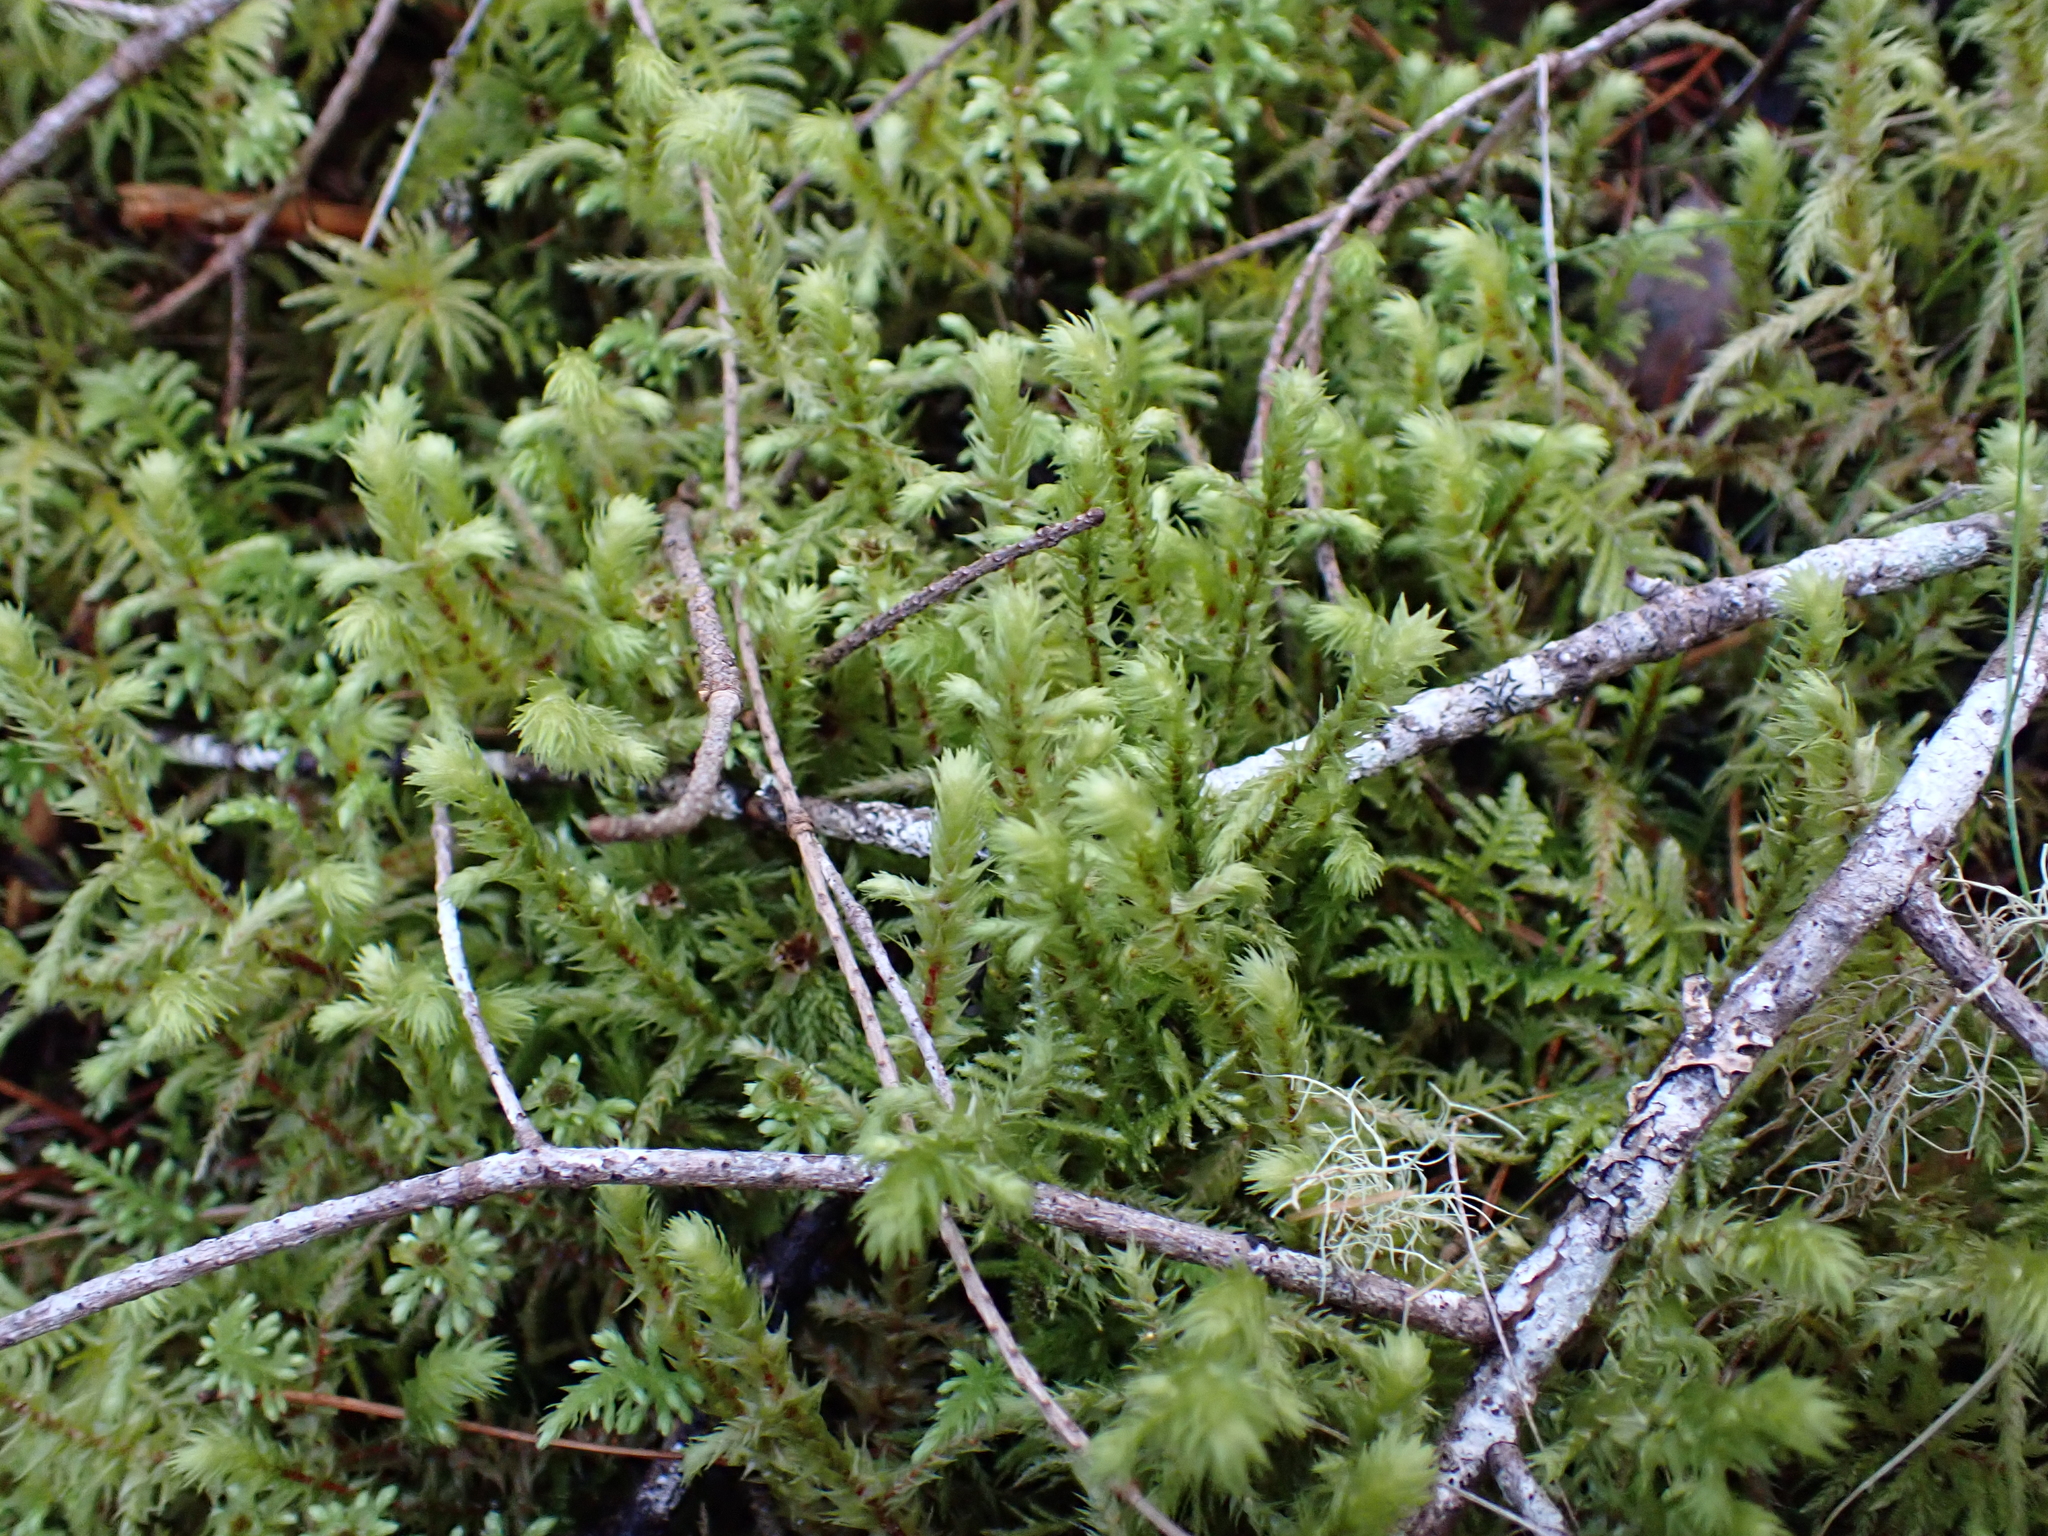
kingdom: Plantae
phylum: Bryophyta
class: Bryopsida
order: Hypnales
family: Hylocomiaceae
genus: Hylocomiadelphus
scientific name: Hylocomiadelphus triquetrus
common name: Rough goose neck moss
